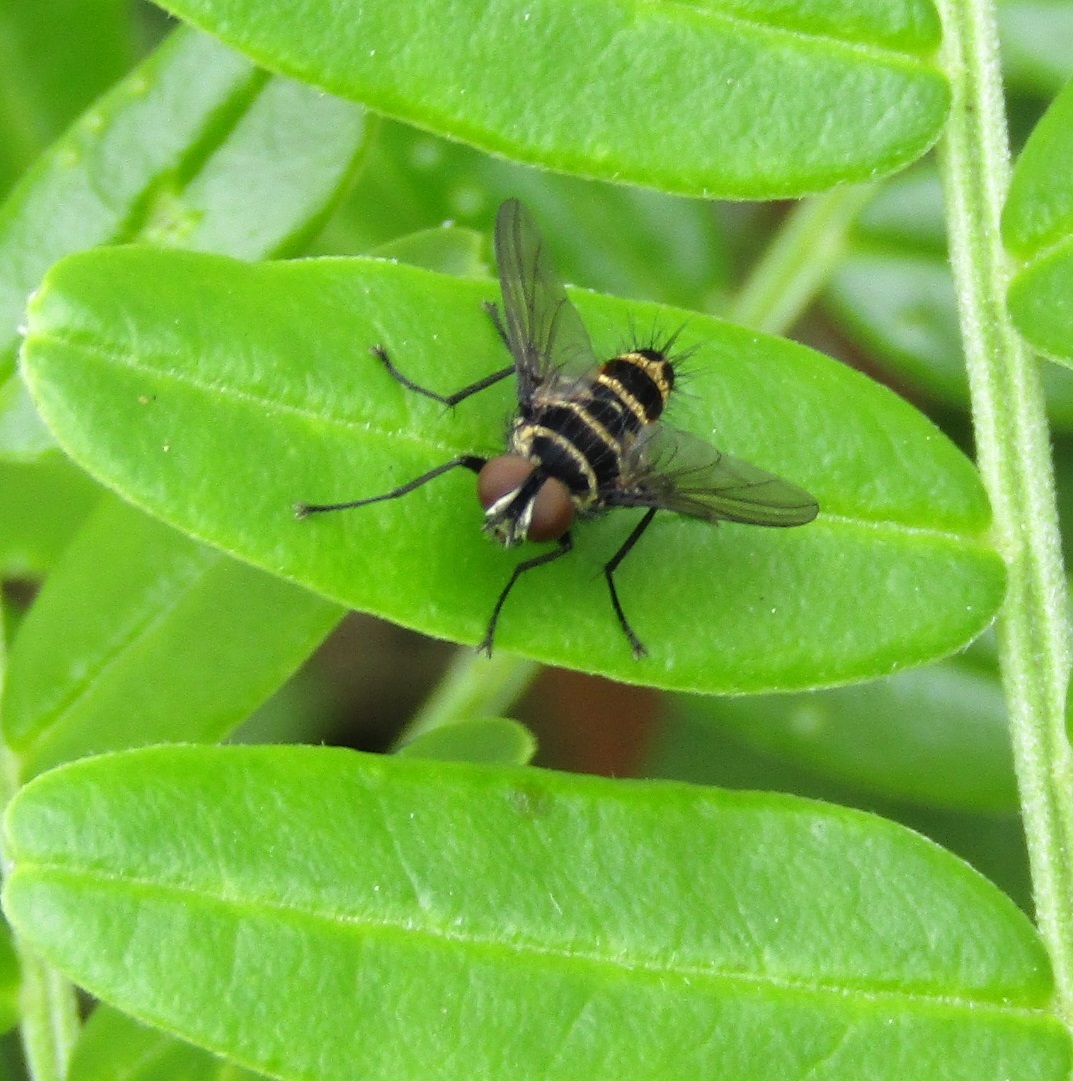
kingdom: Animalia
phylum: Arthropoda
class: Insecta
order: Diptera
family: Tachinidae
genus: Trigonospila
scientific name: Trigonospila brevifacies
